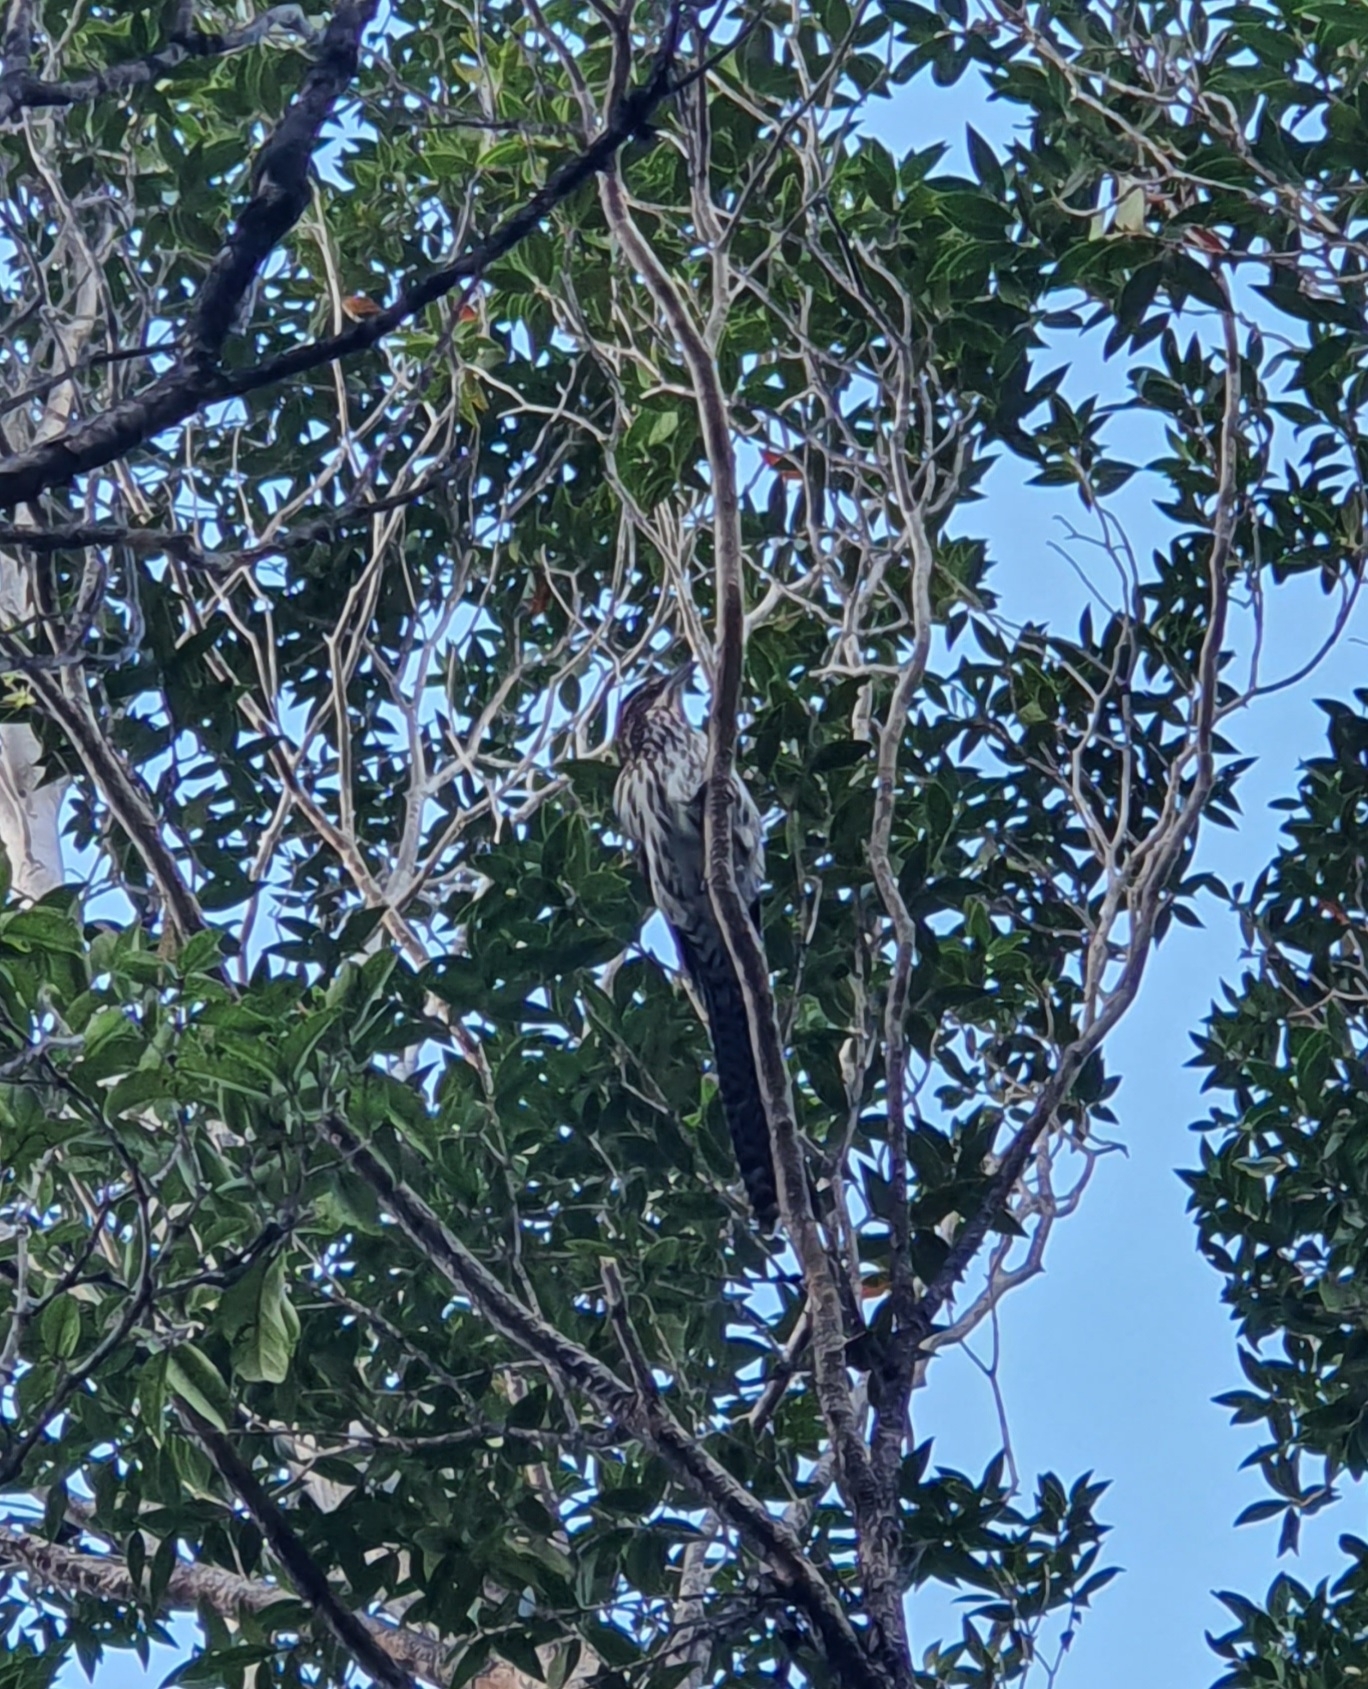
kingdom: Animalia
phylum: Chordata
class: Aves
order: Cuculiformes
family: Cuculidae
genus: Urodynamis
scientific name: Urodynamis taitensis
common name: Long-tailed koel
